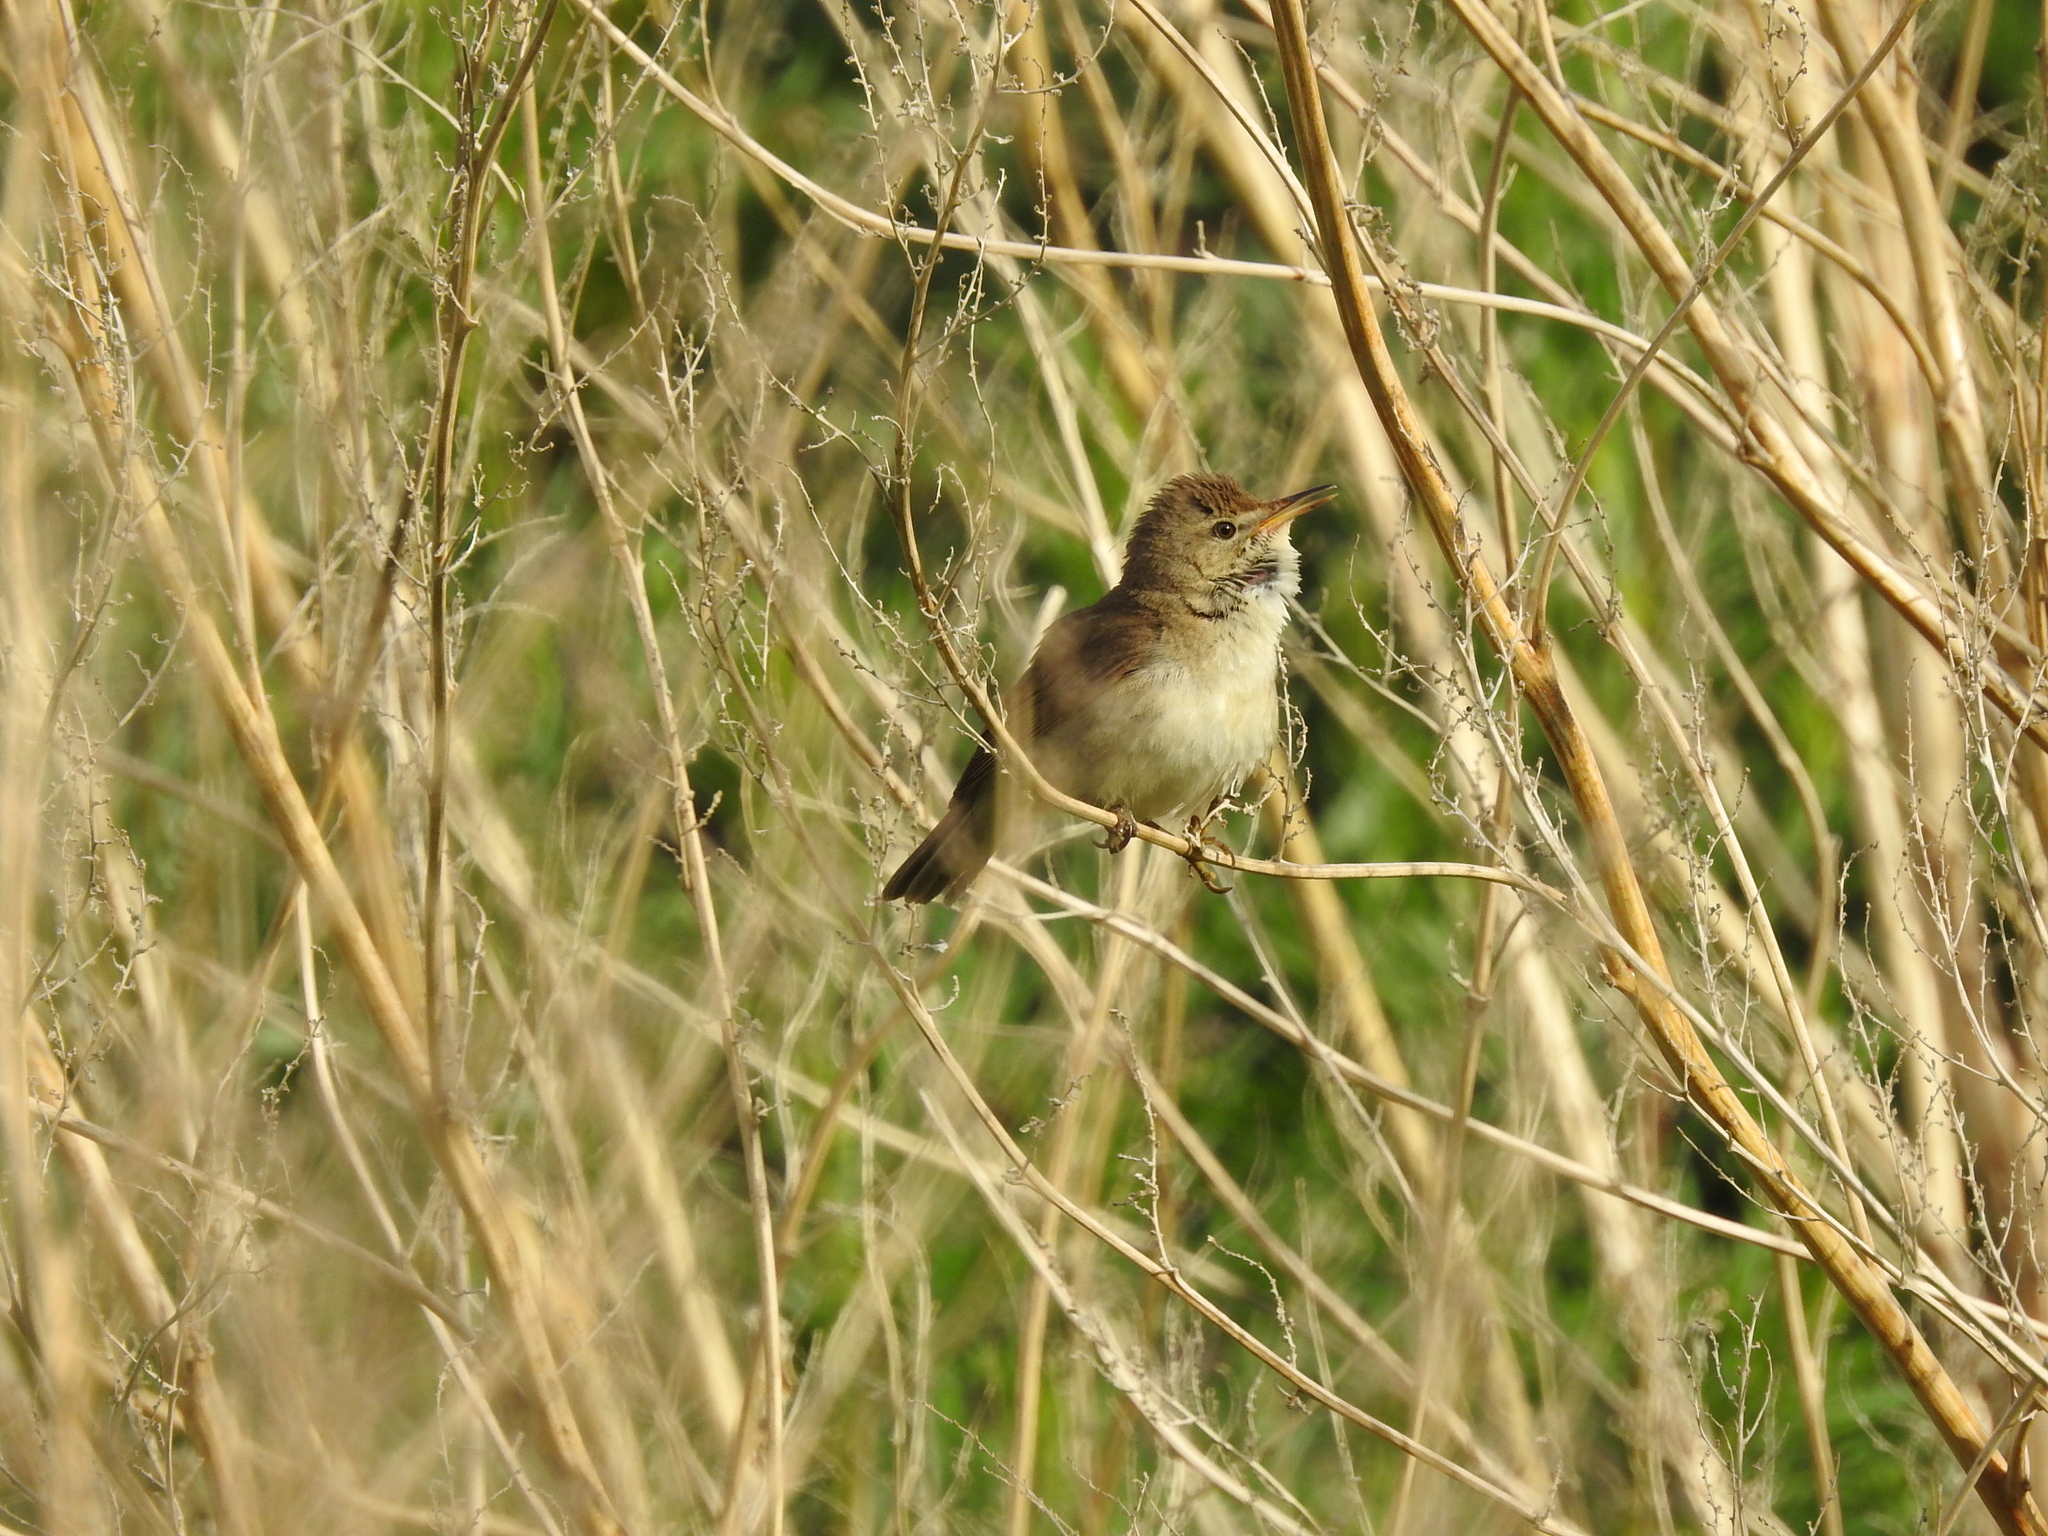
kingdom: Animalia
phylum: Chordata
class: Aves
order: Passeriformes
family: Acrocephalidae
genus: Acrocephalus
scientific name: Acrocephalus dumetorum
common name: Blyth's reed warbler
